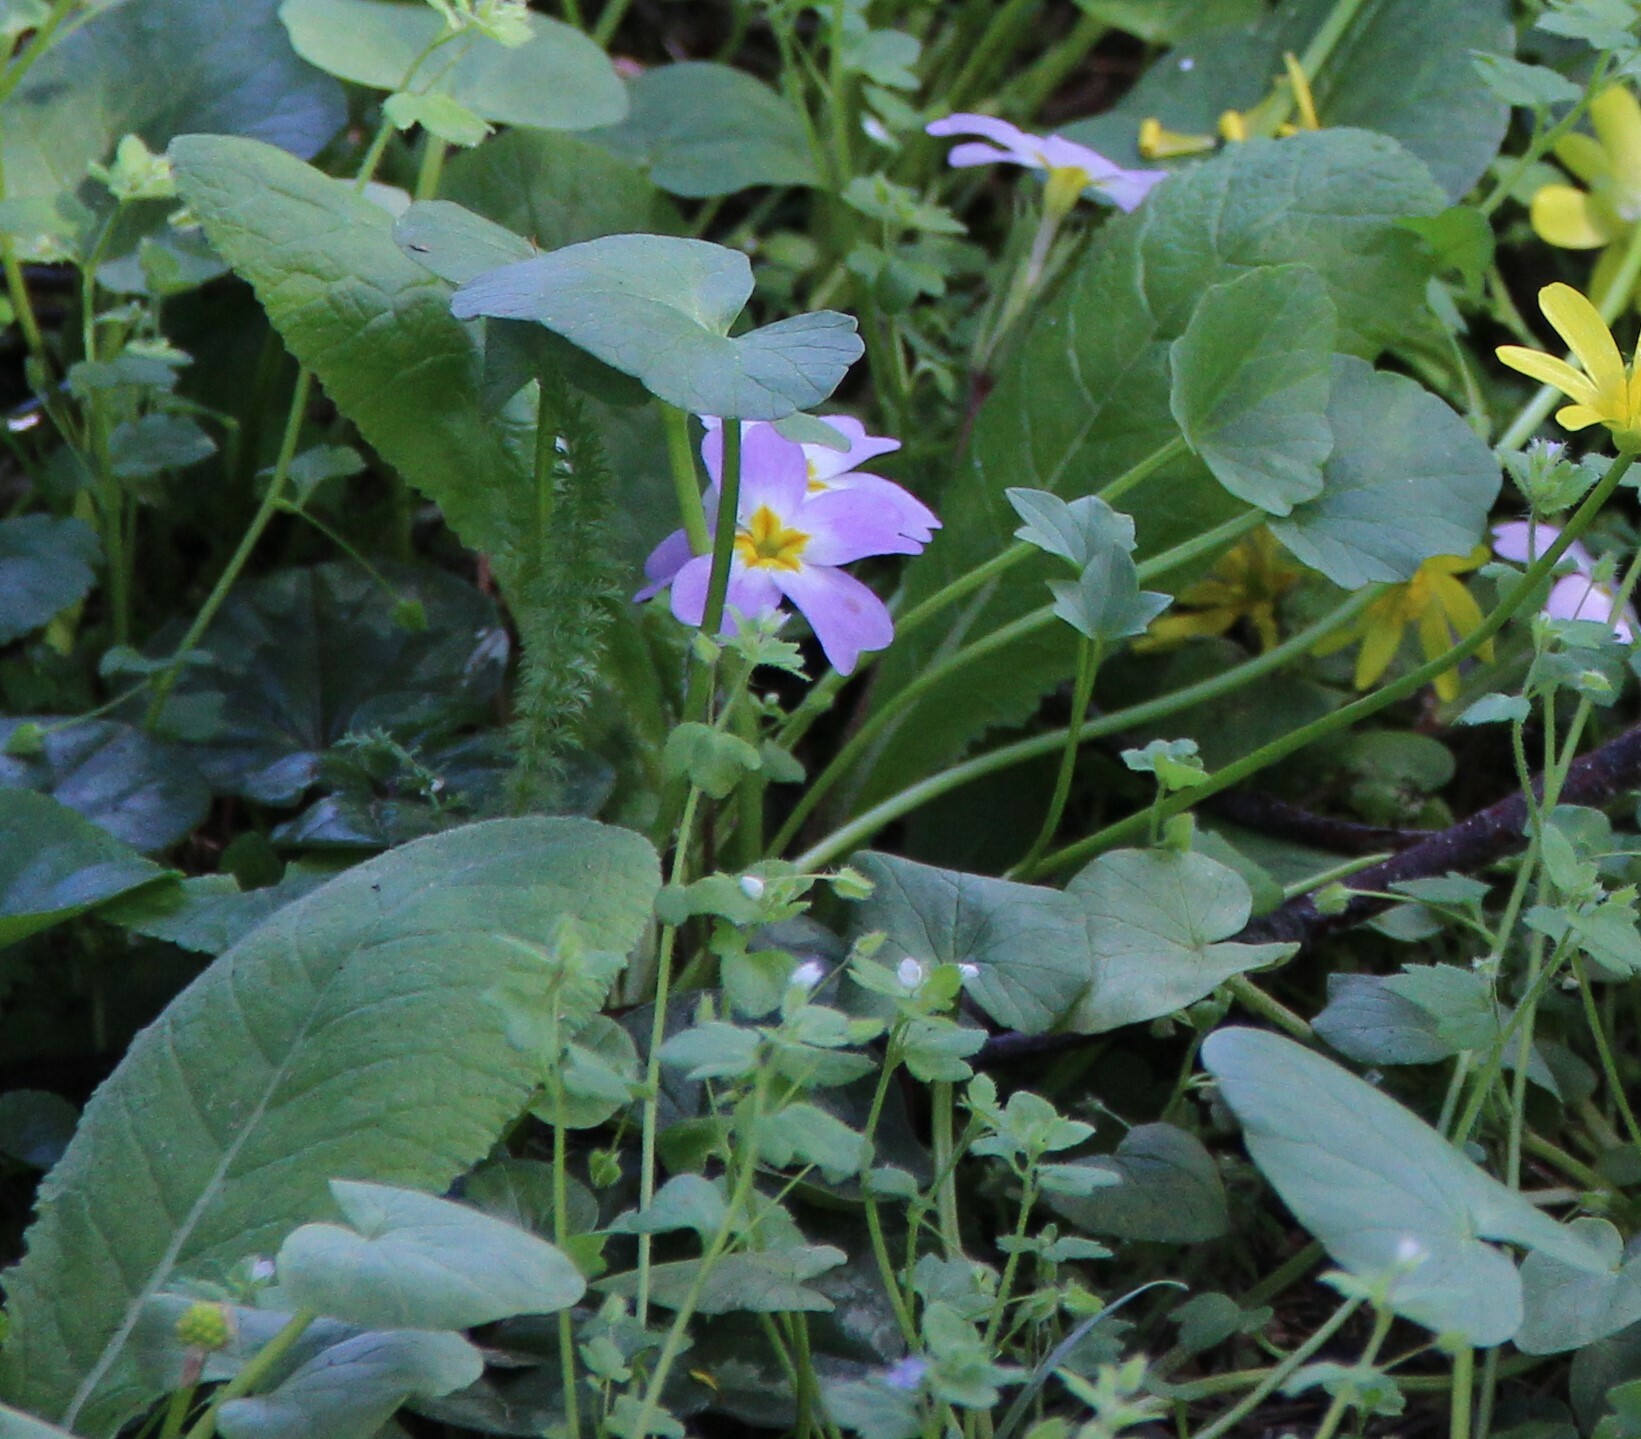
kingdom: Plantae
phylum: Tracheophyta
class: Magnoliopsida
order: Ericales
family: Primulaceae
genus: Primula
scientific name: Primula vulgaris
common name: Primrose
